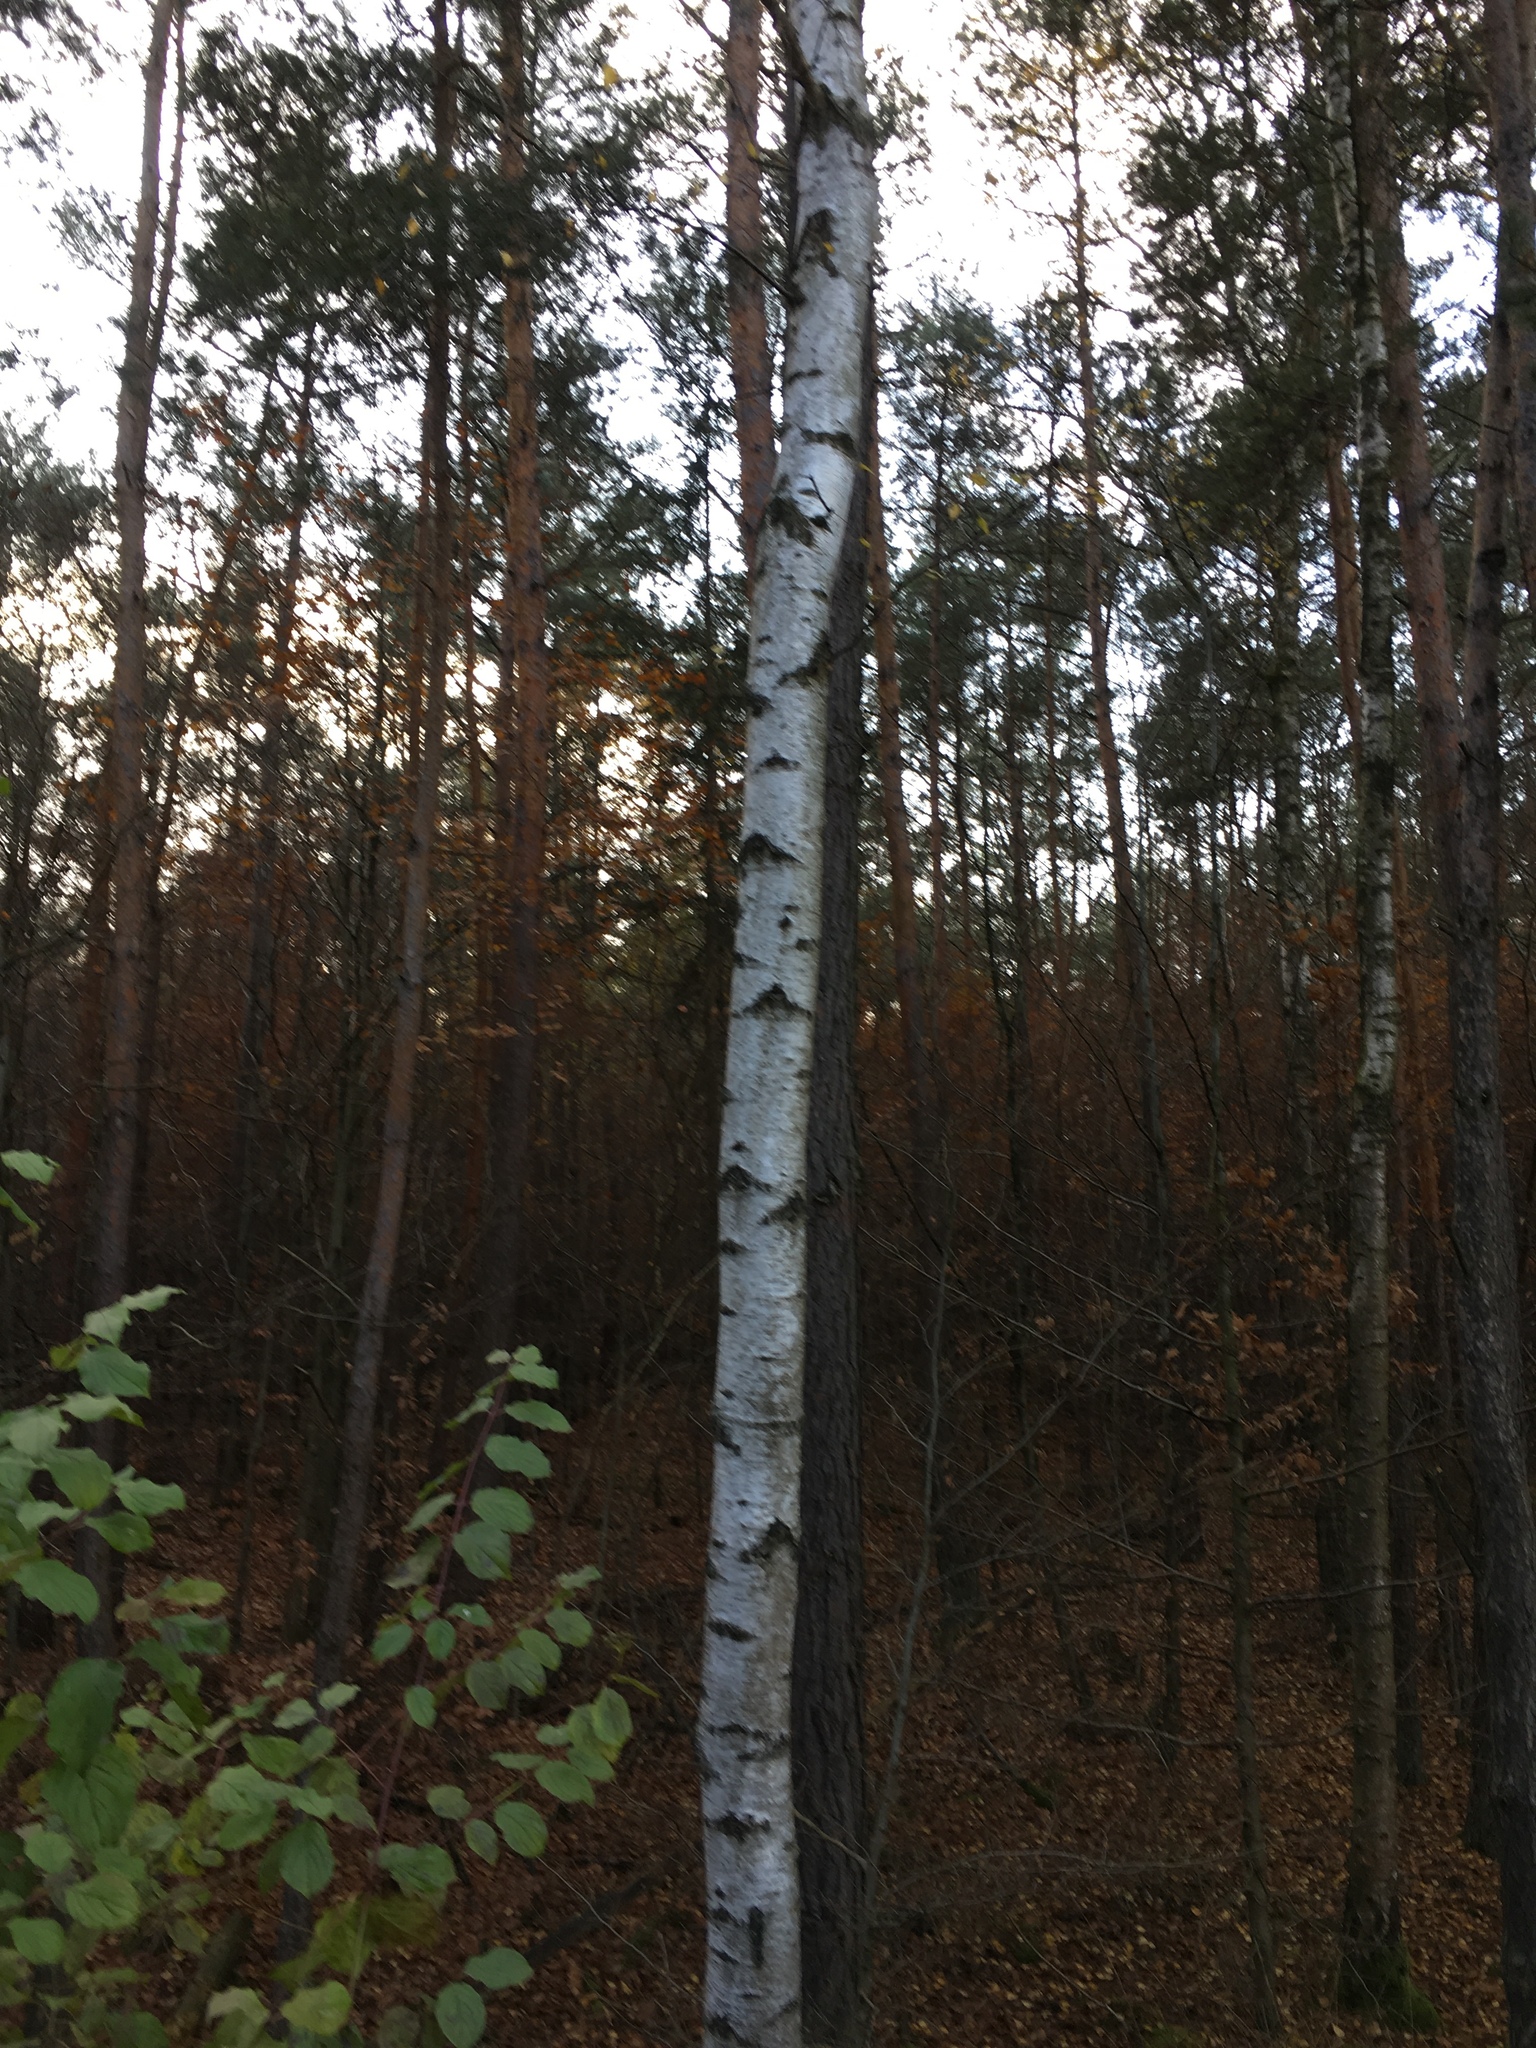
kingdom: Plantae
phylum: Tracheophyta
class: Magnoliopsida
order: Fagales
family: Betulaceae
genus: Betula
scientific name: Betula pendula
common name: Silver birch
